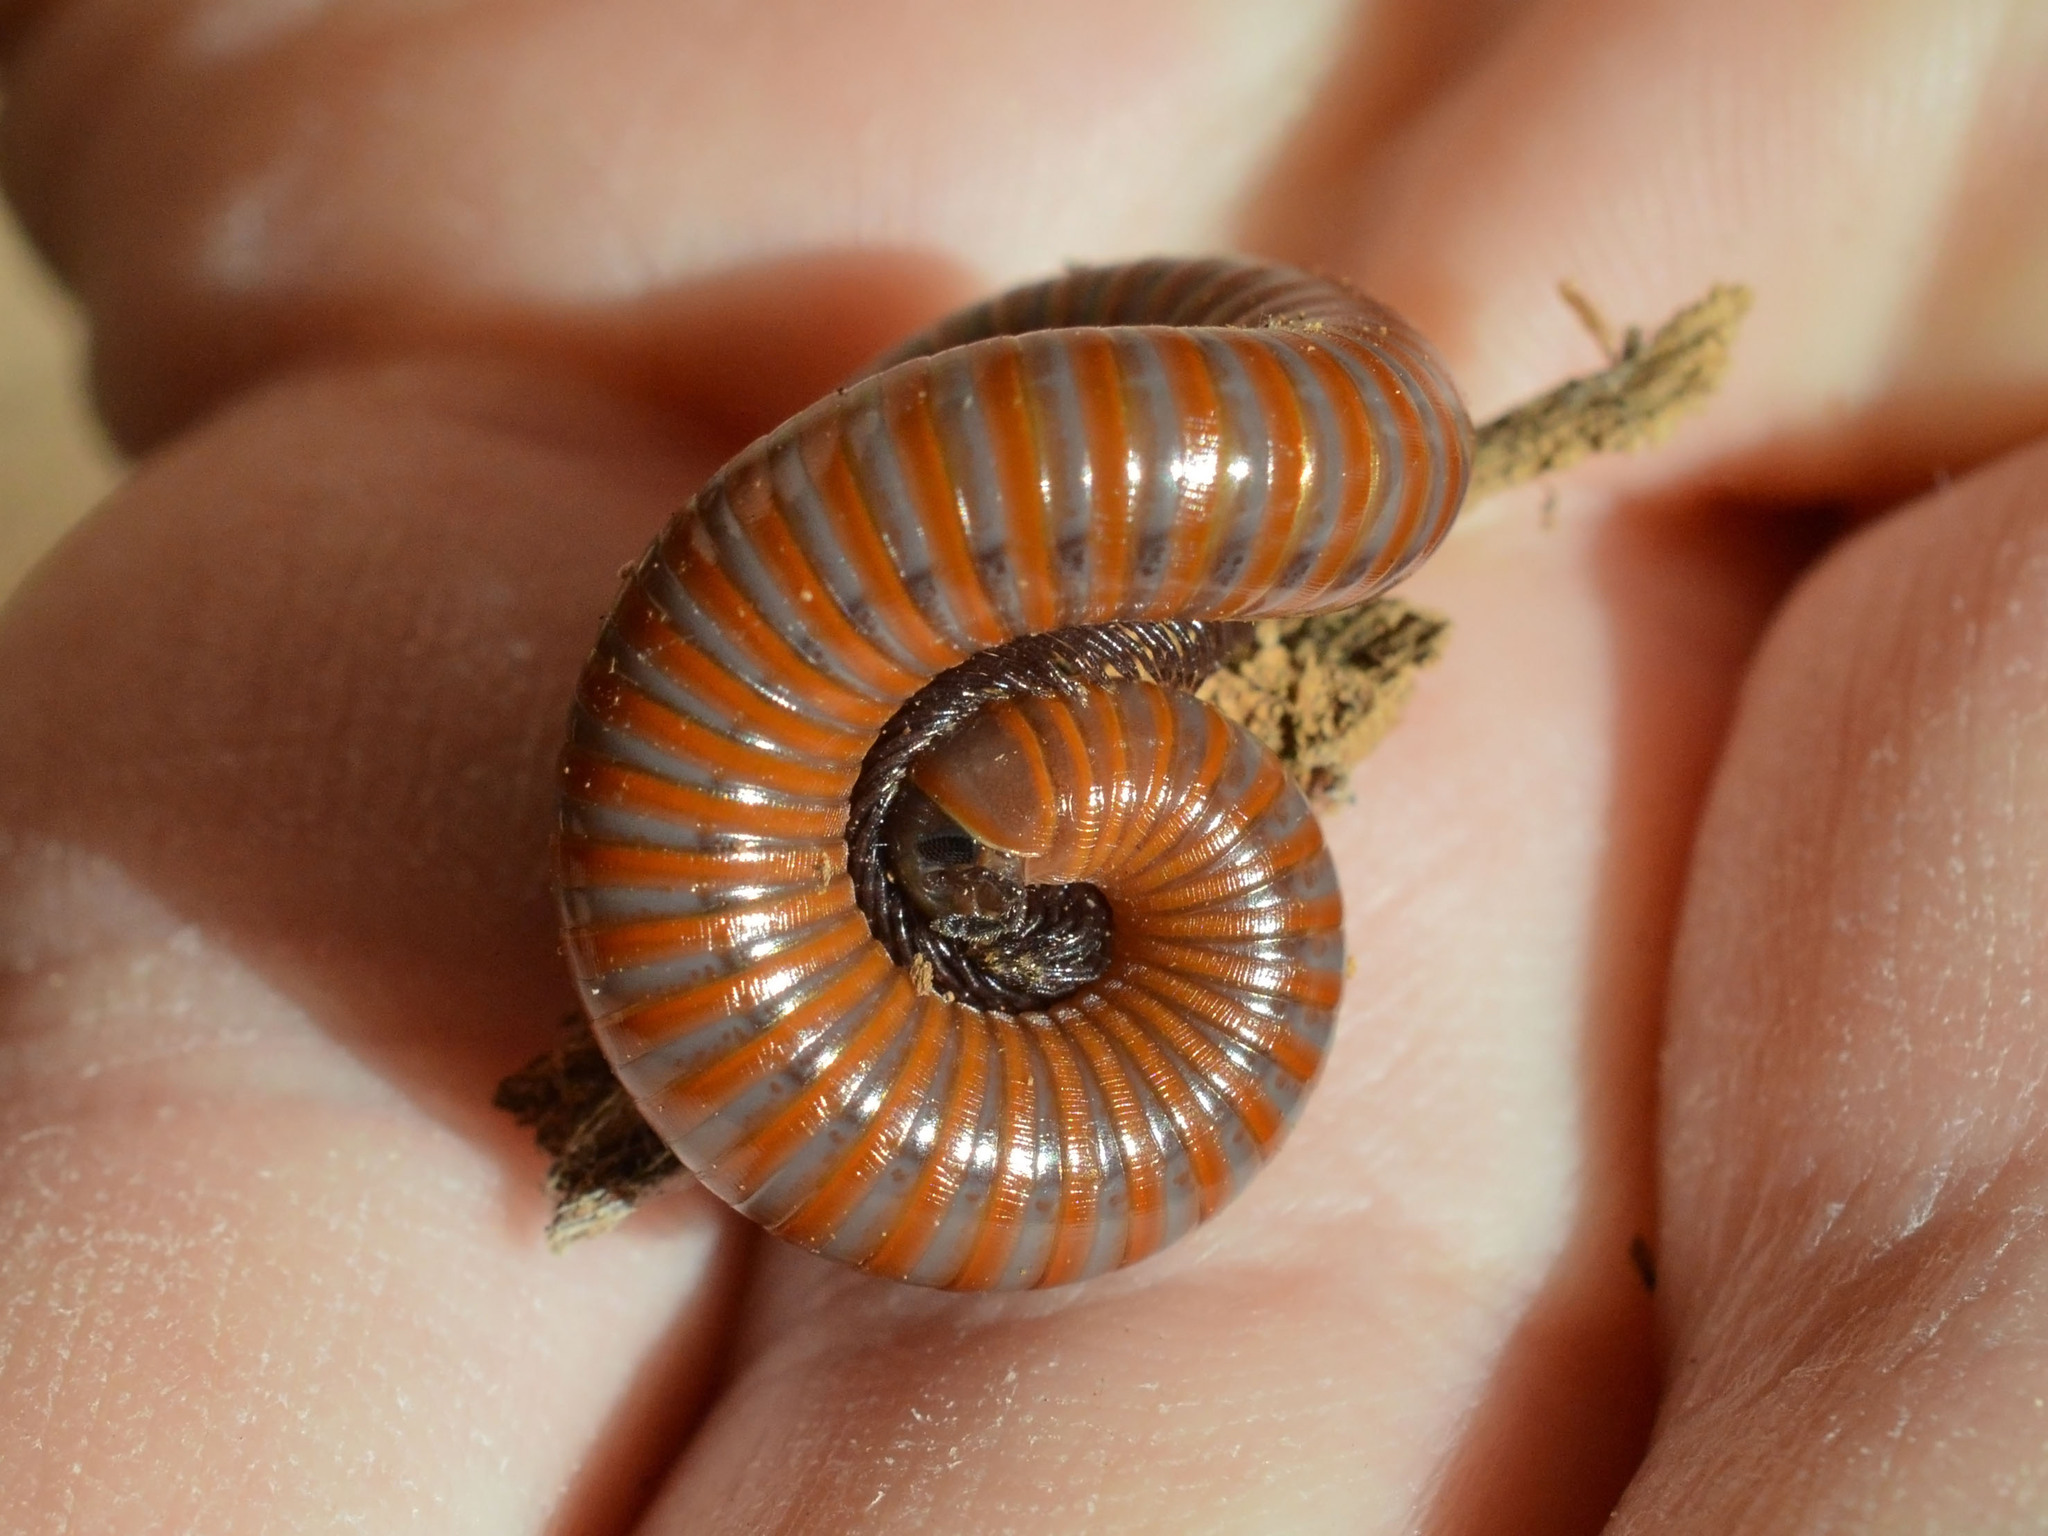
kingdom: Animalia
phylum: Arthropoda
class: Diplopoda
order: Julida
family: Julidae
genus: Pachyiulus
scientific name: Pachyiulus hungaricus
